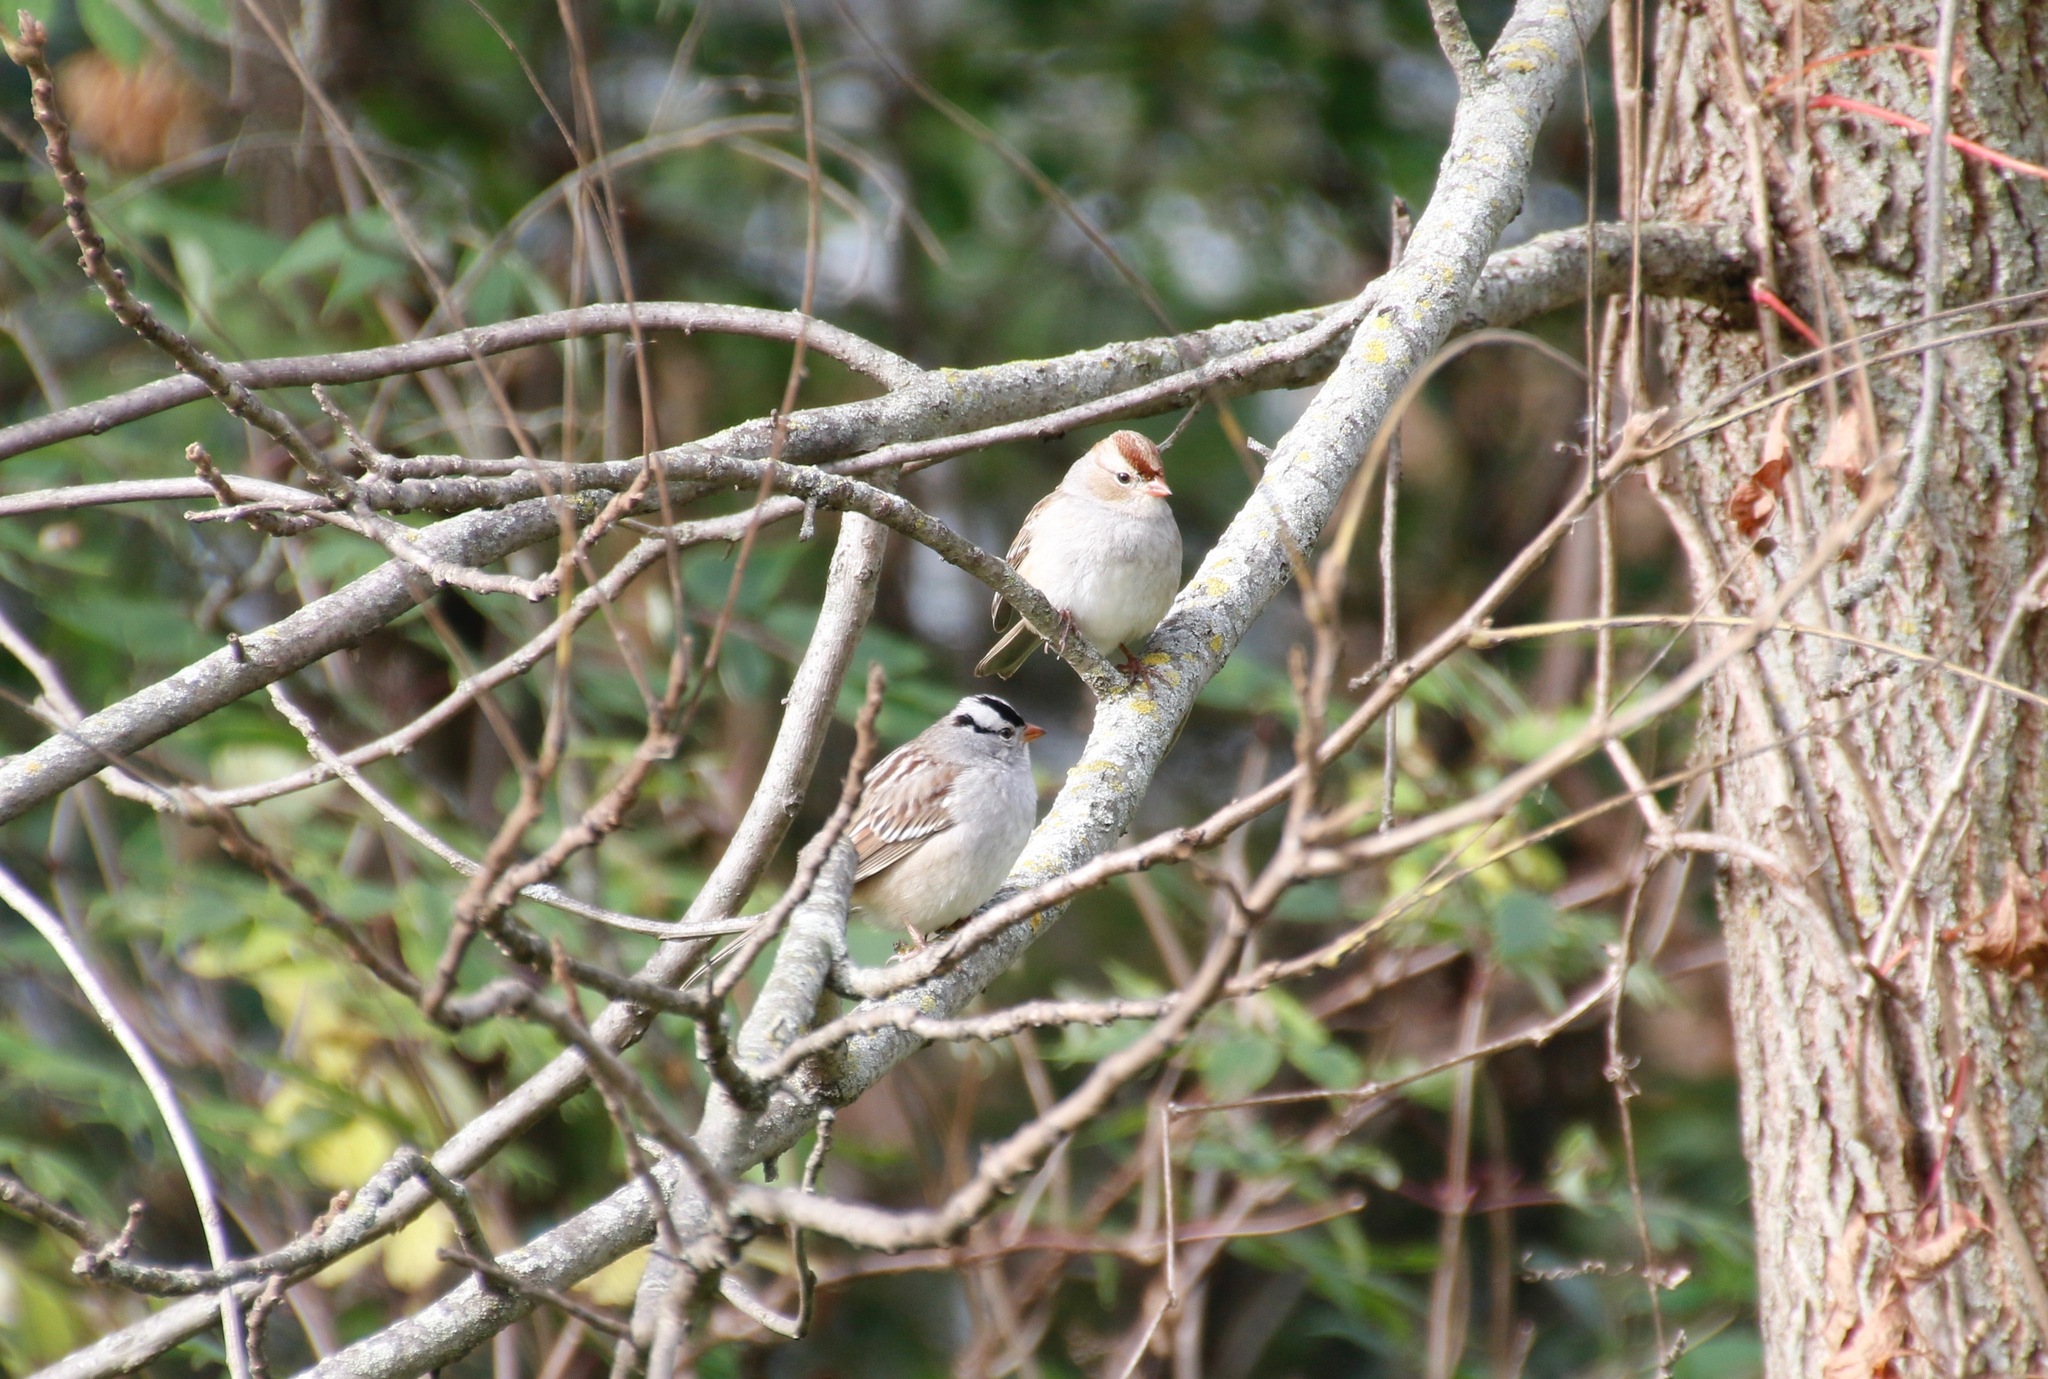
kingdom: Animalia
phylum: Chordata
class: Aves
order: Passeriformes
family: Passerellidae
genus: Zonotrichia
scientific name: Zonotrichia leucophrys
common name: White-crowned sparrow
